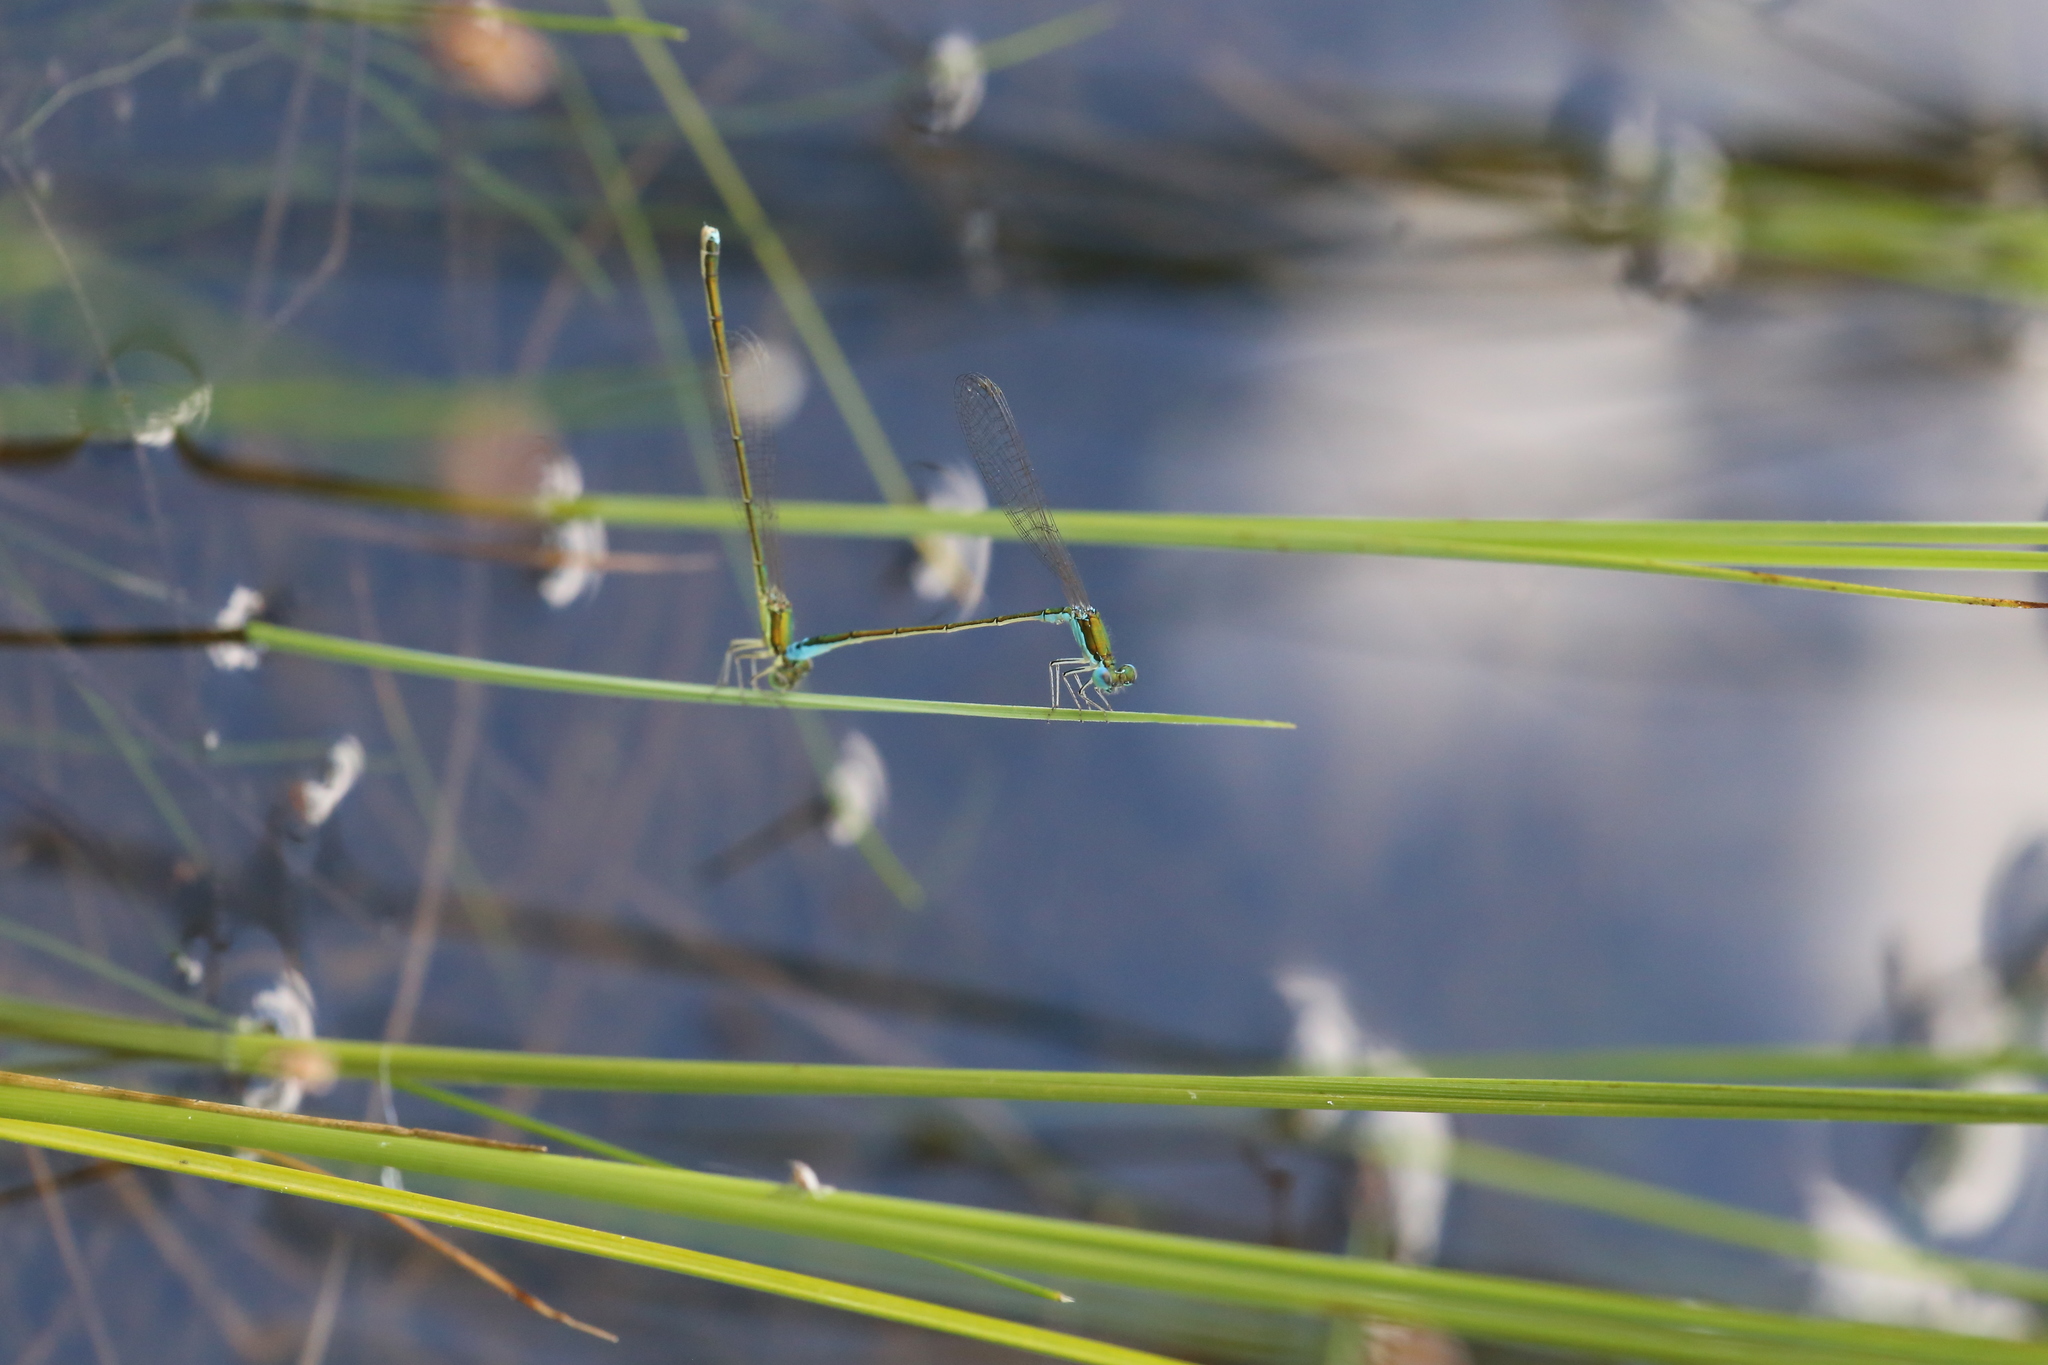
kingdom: Animalia
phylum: Arthropoda
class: Insecta
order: Odonata
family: Coenagrionidae
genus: Nehalennia
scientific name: Nehalennia irene
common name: Sedge sprite
